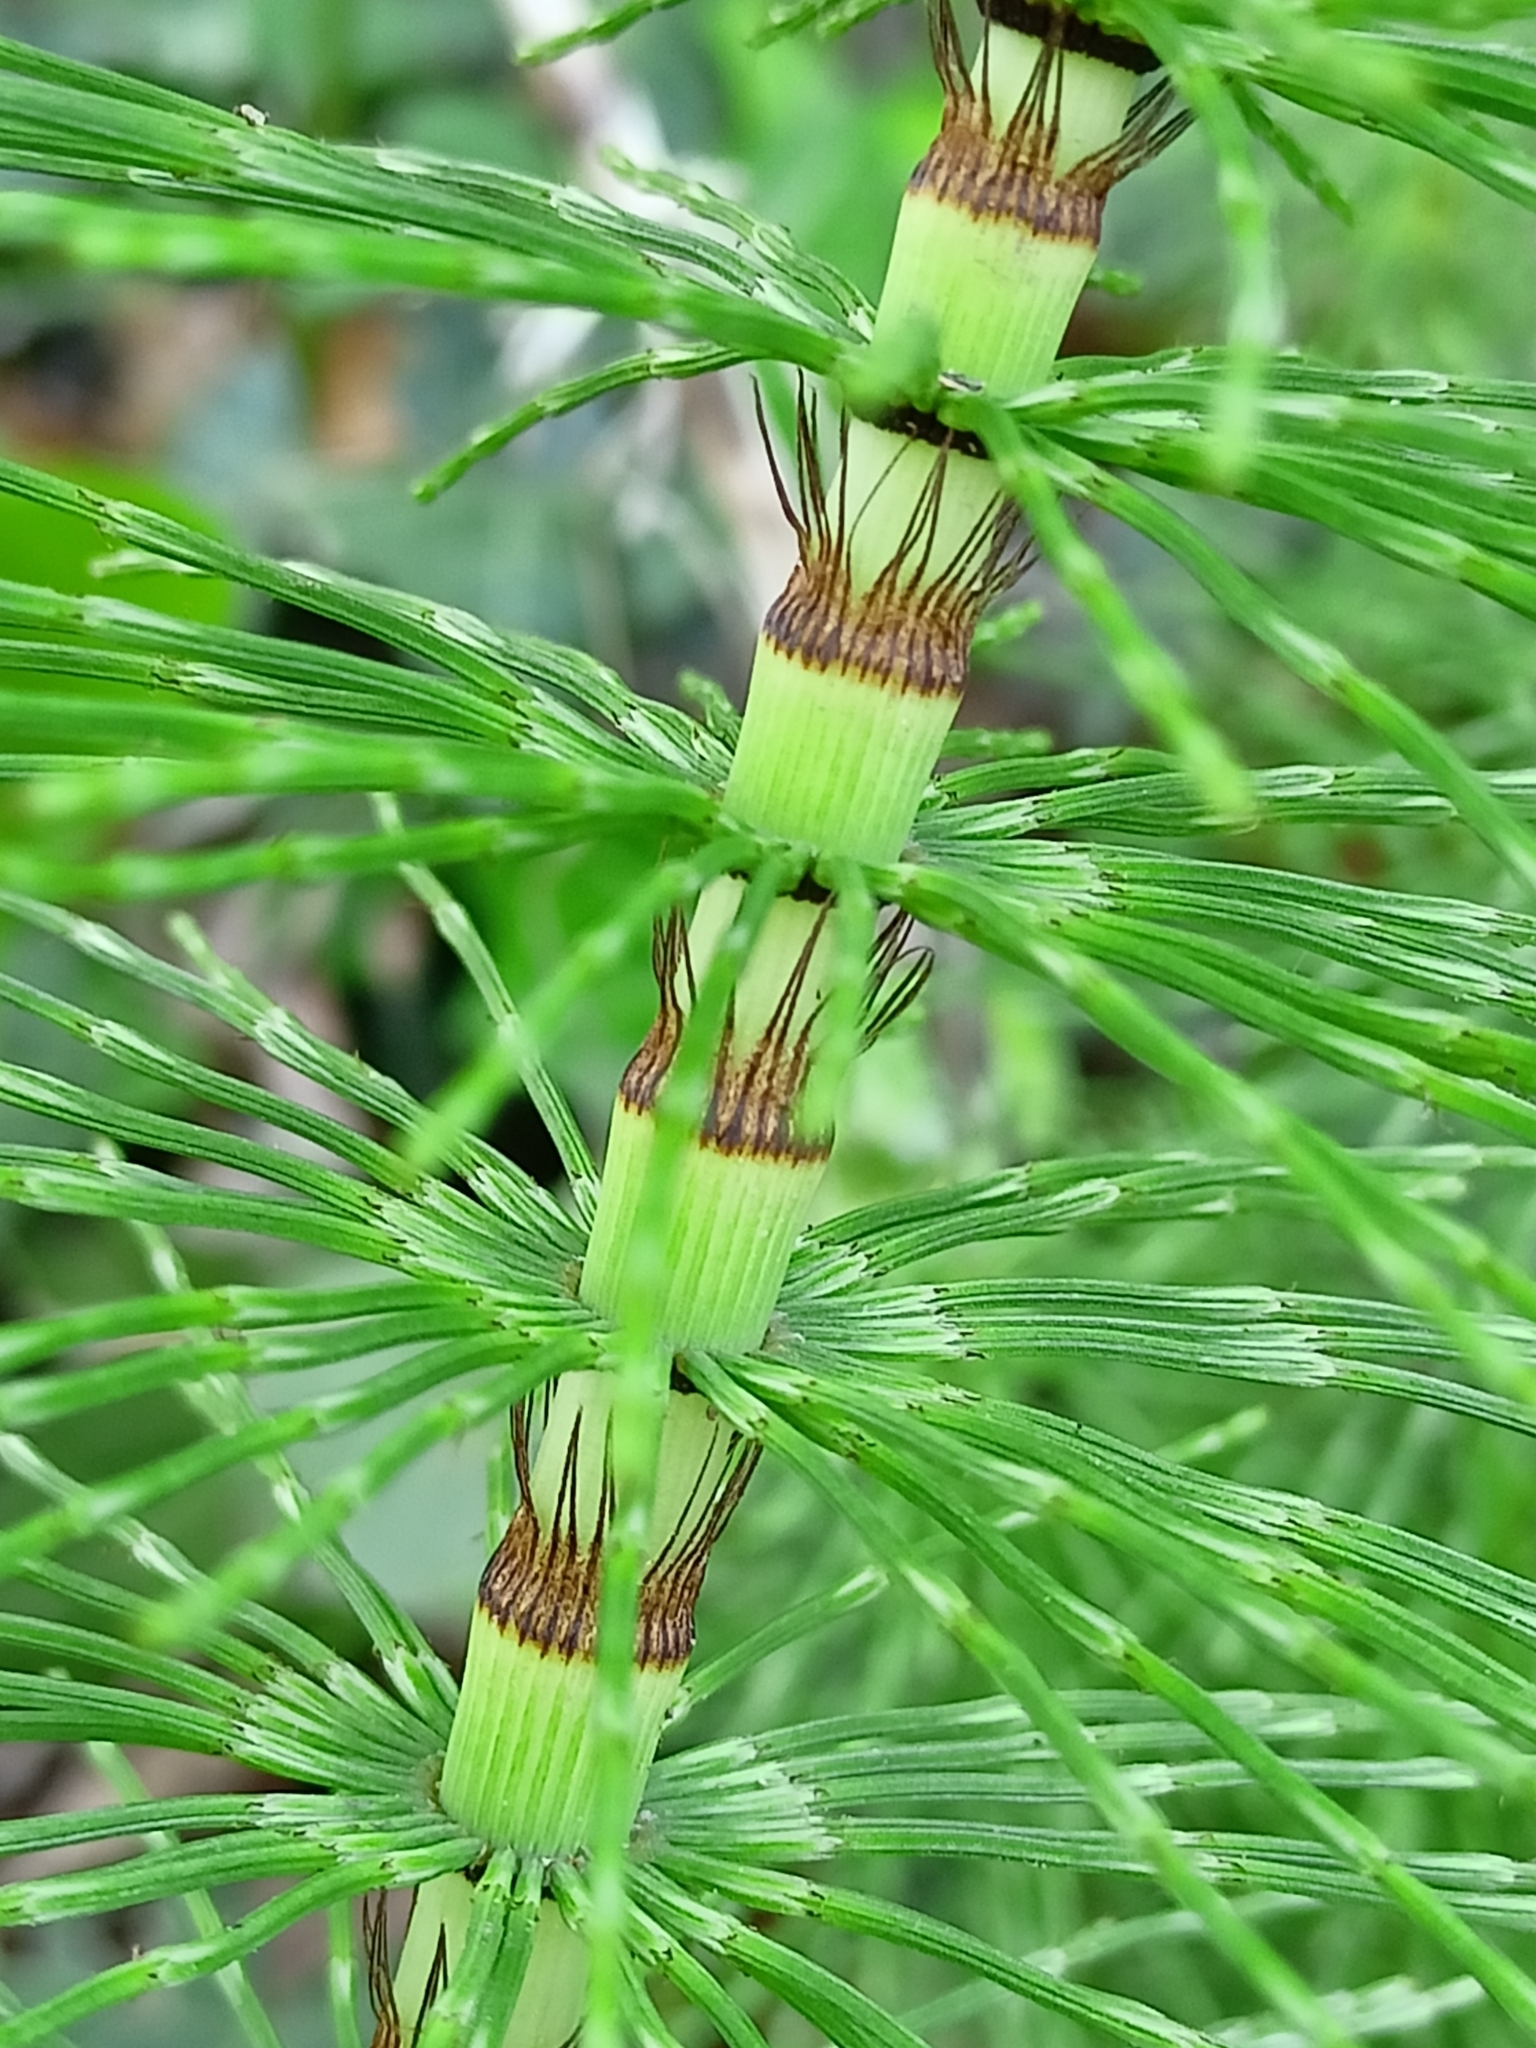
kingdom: Plantae
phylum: Tracheophyta
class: Polypodiopsida
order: Equisetales
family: Equisetaceae
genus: Equisetum
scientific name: Equisetum telmateia
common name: Great horsetail
